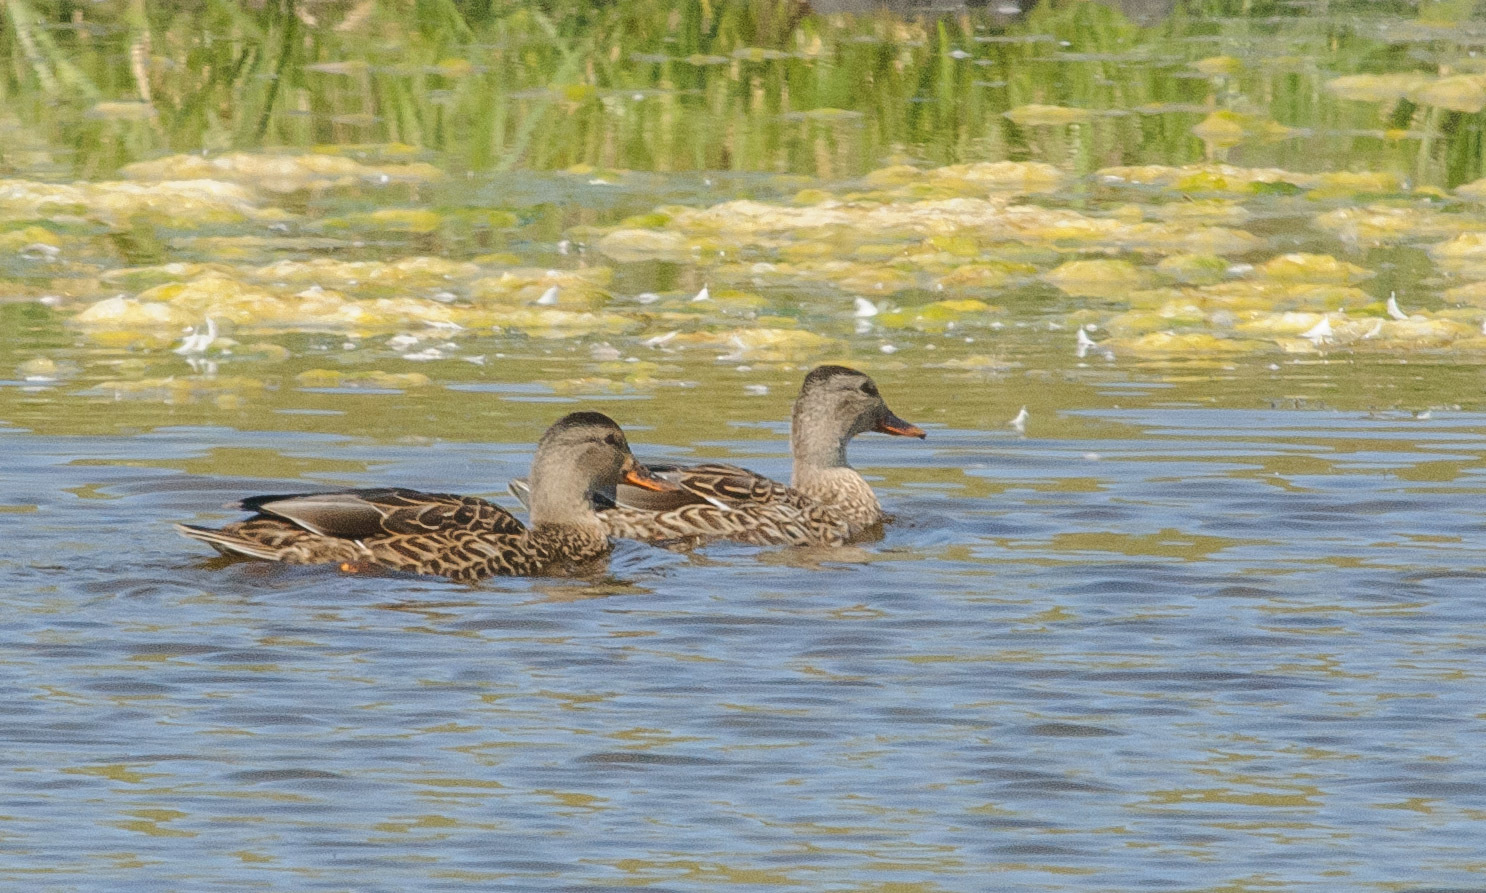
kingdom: Animalia
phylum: Chordata
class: Aves
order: Anseriformes
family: Anatidae
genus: Anas
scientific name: Anas platyrhynchos
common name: Mallard
